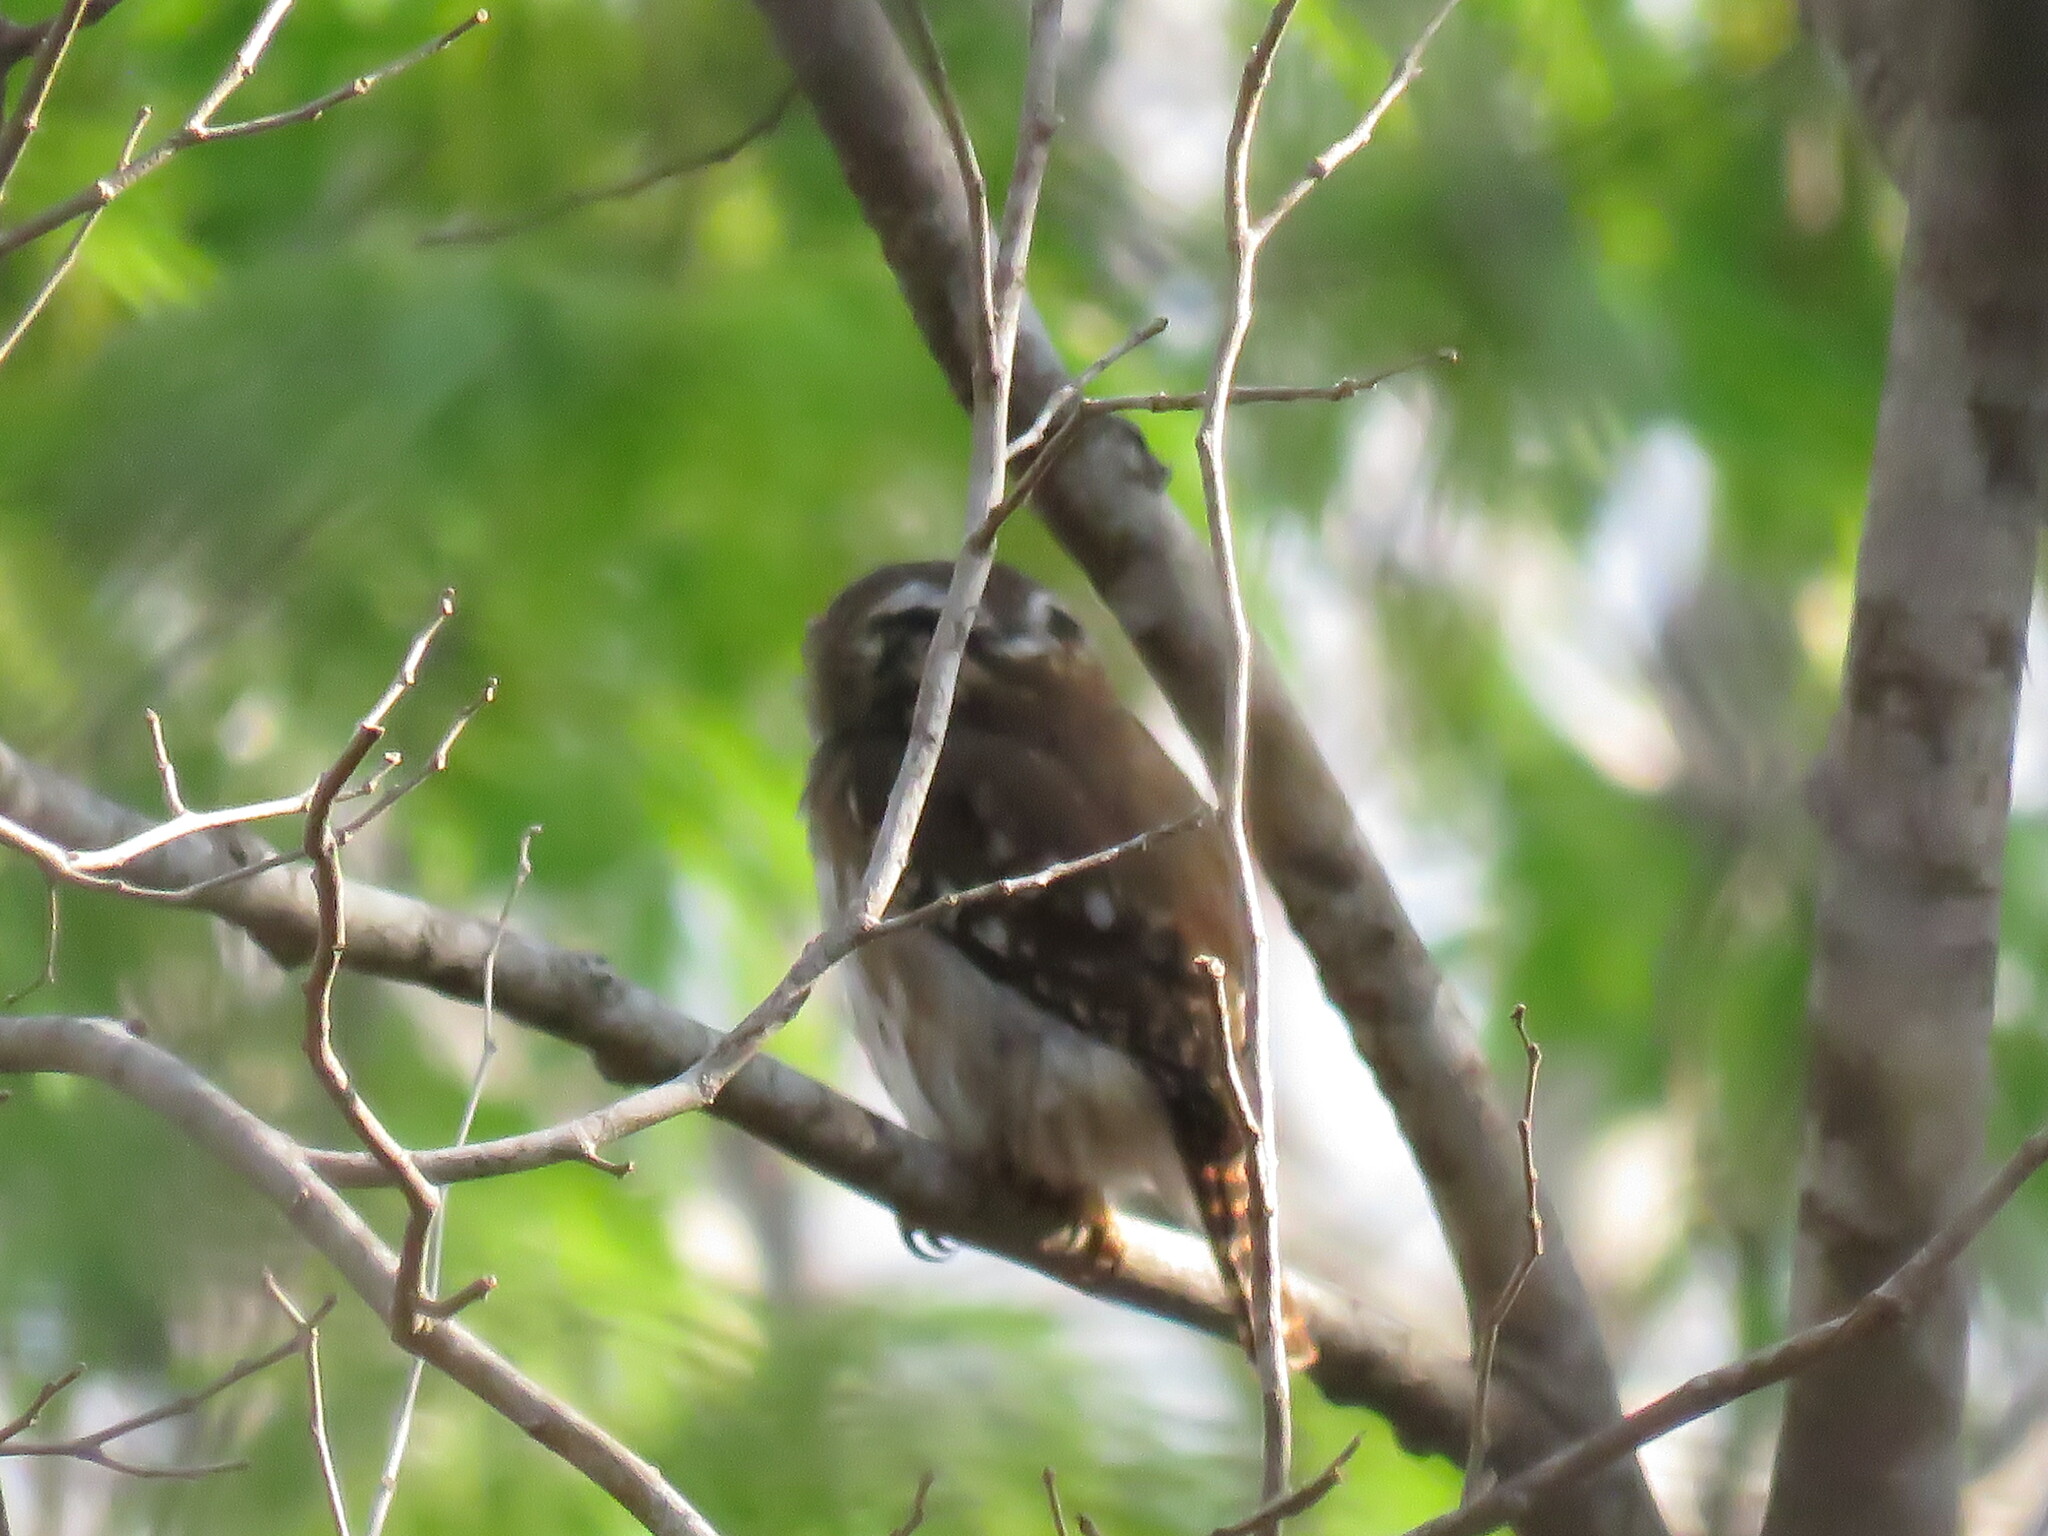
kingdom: Animalia
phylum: Chordata
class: Aves
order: Strigiformes
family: Strigidae
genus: Glaucidium
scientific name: Glaucidium brasilianum
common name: Ferruginous pygmy-owl
